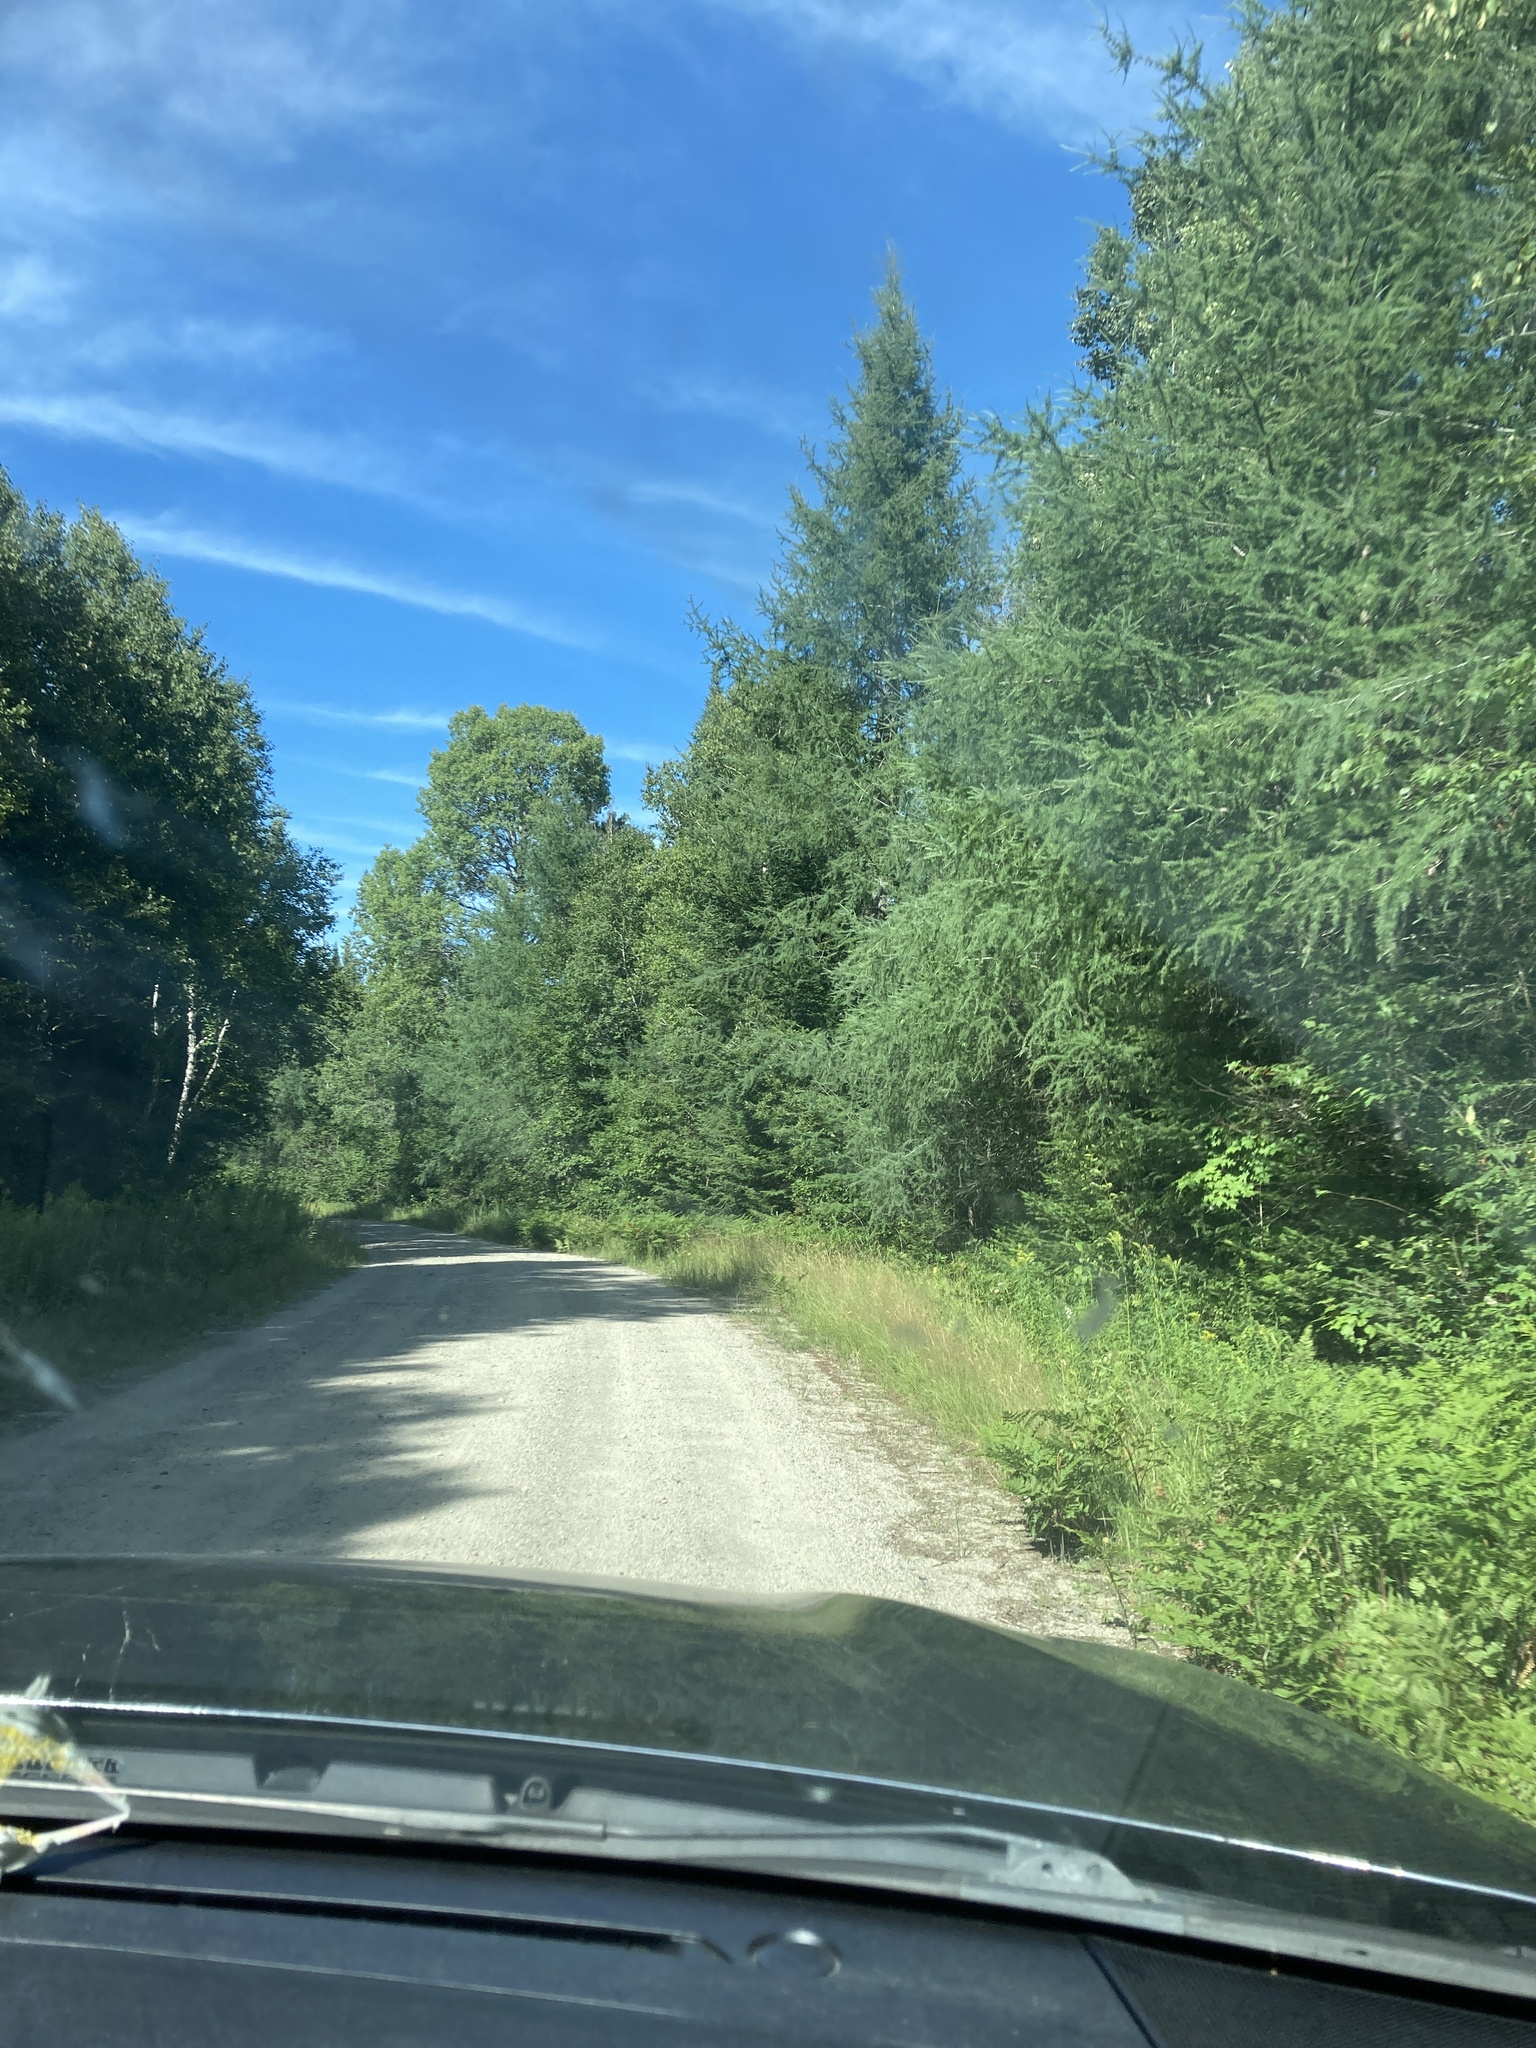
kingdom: Plantae
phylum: Tracheophyta
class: Pinopsida
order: Pinales
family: Pinaceae
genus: Larix
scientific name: Larix laricina
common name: American larch
